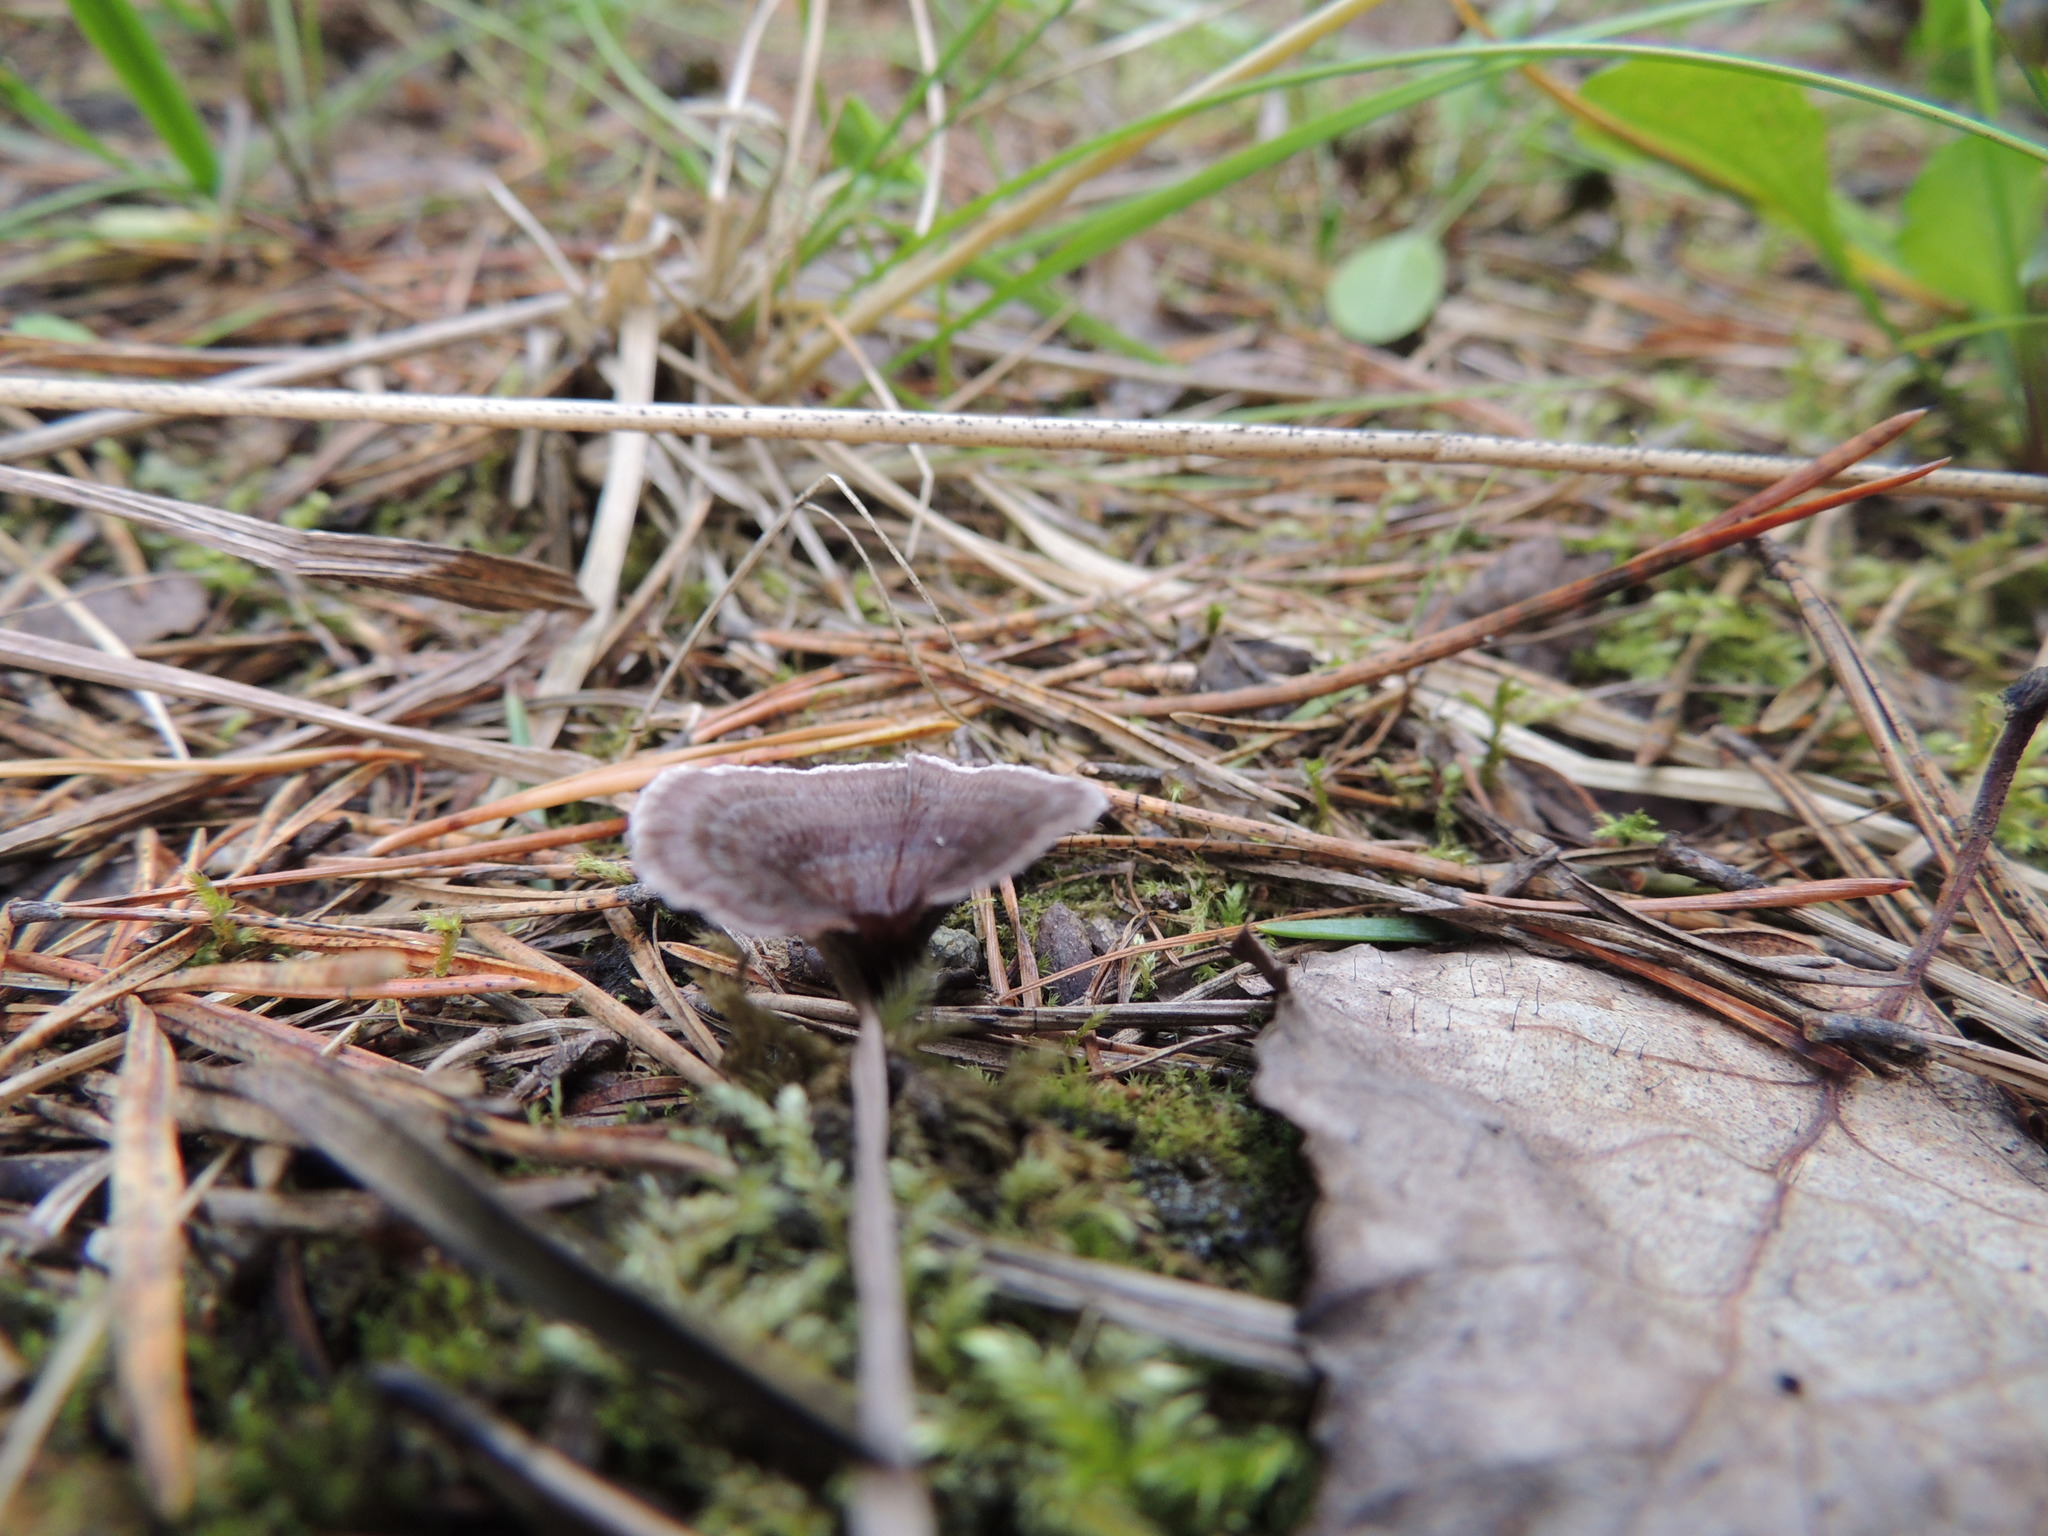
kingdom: Fungi
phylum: Basidiomycota
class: Agaricomycetes
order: Thelephorales
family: Thelephoraceae
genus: Thelephora
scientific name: Thelephora caryophyllea
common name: Carnation earthfan
